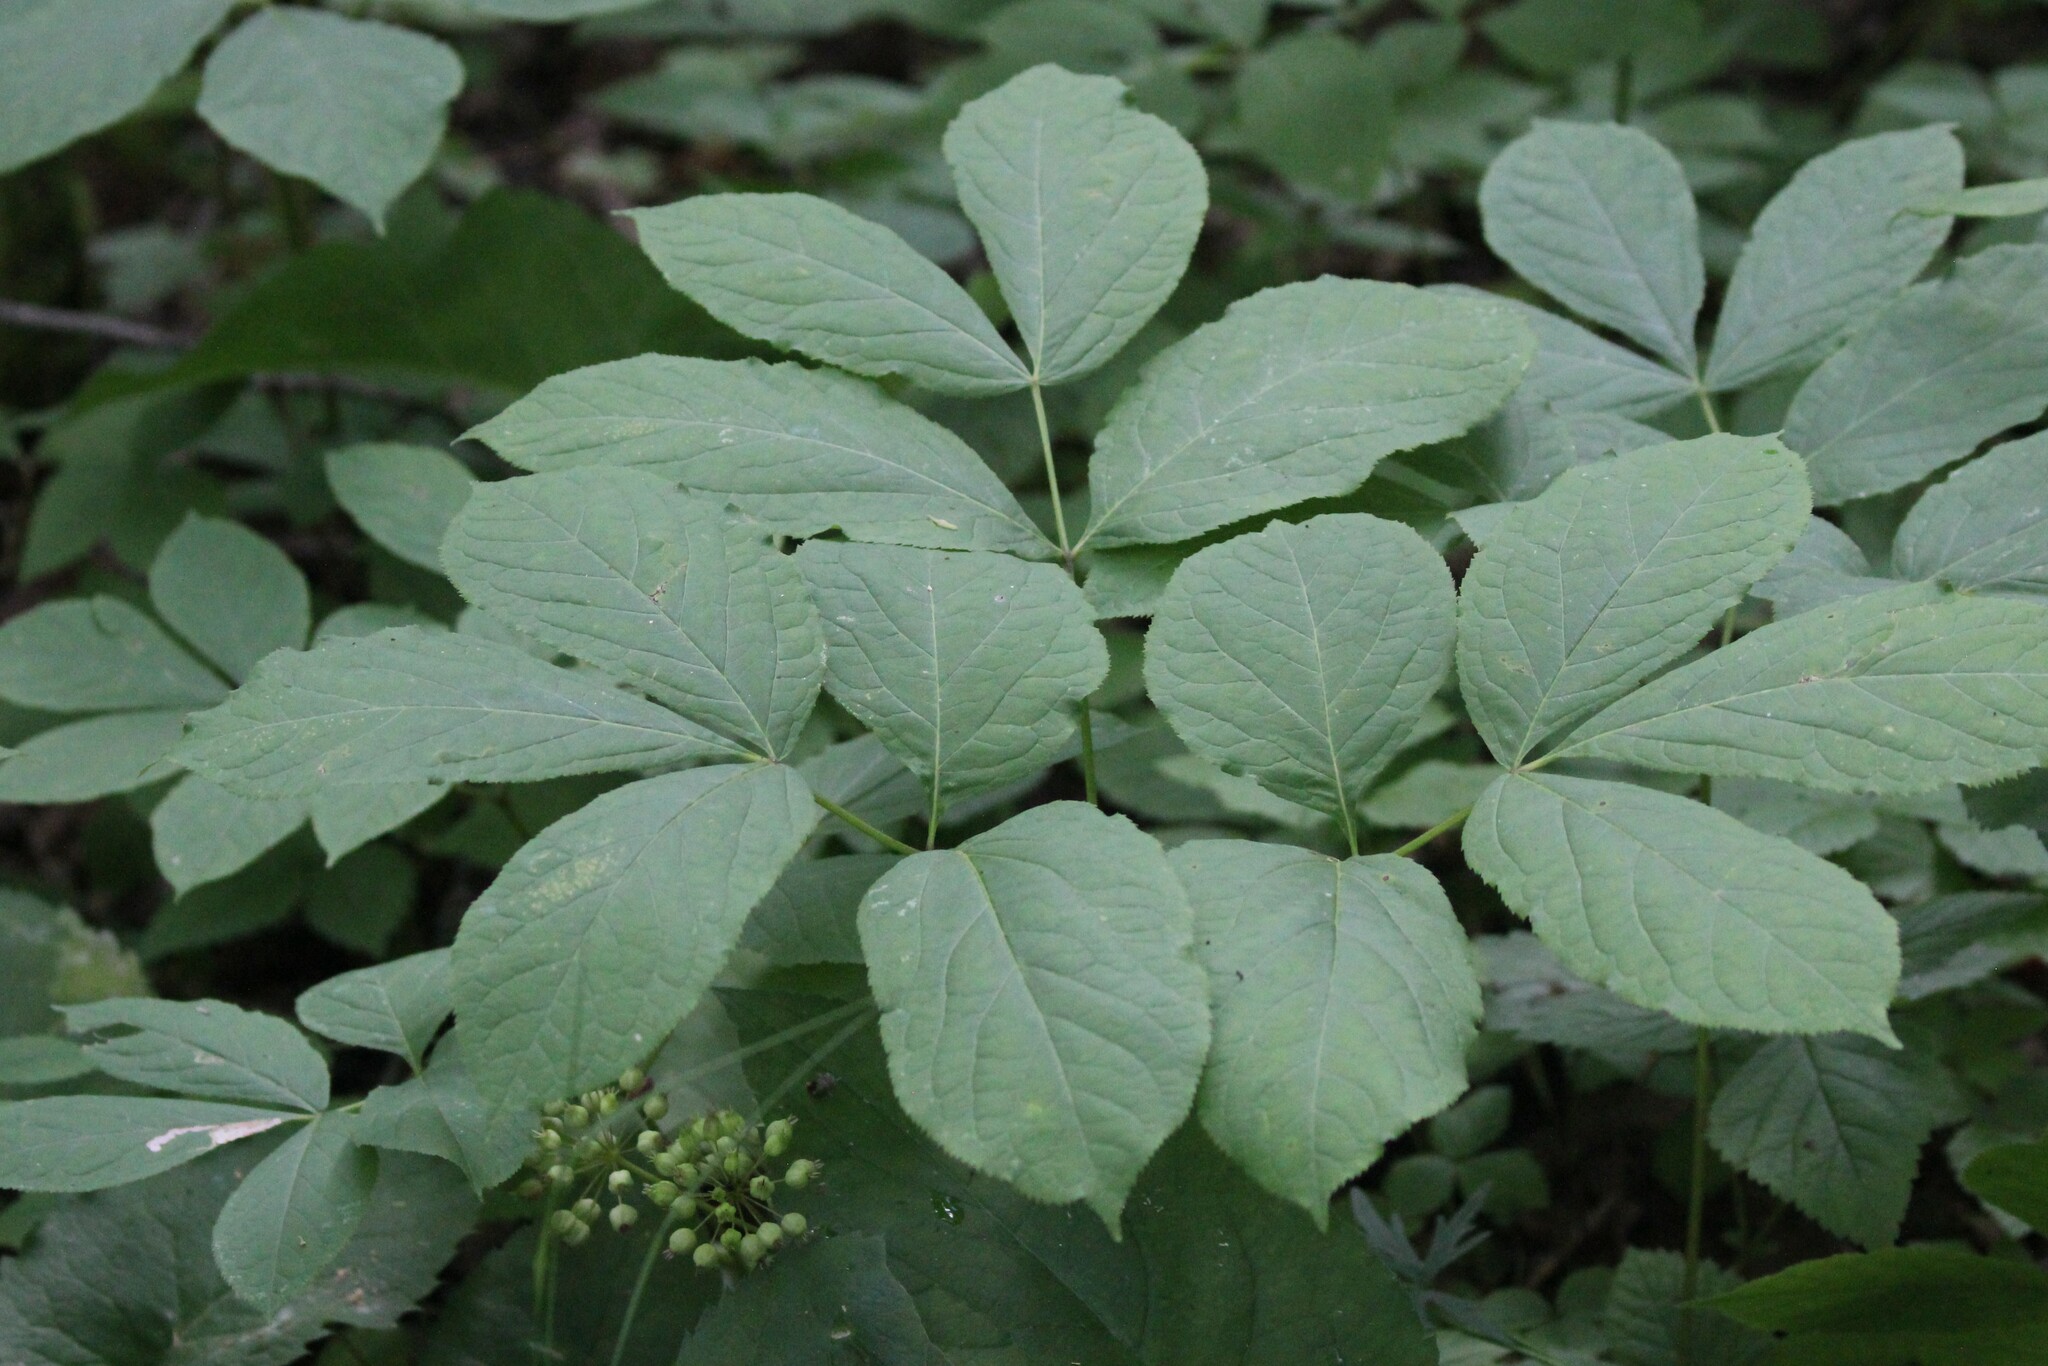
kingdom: Plantae
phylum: Tracheophyta
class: Magnoliopsida
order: Apiales
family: Araliaceae
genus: Aralia
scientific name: Aralia nudicaulis
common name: Wild sarsaparilla
